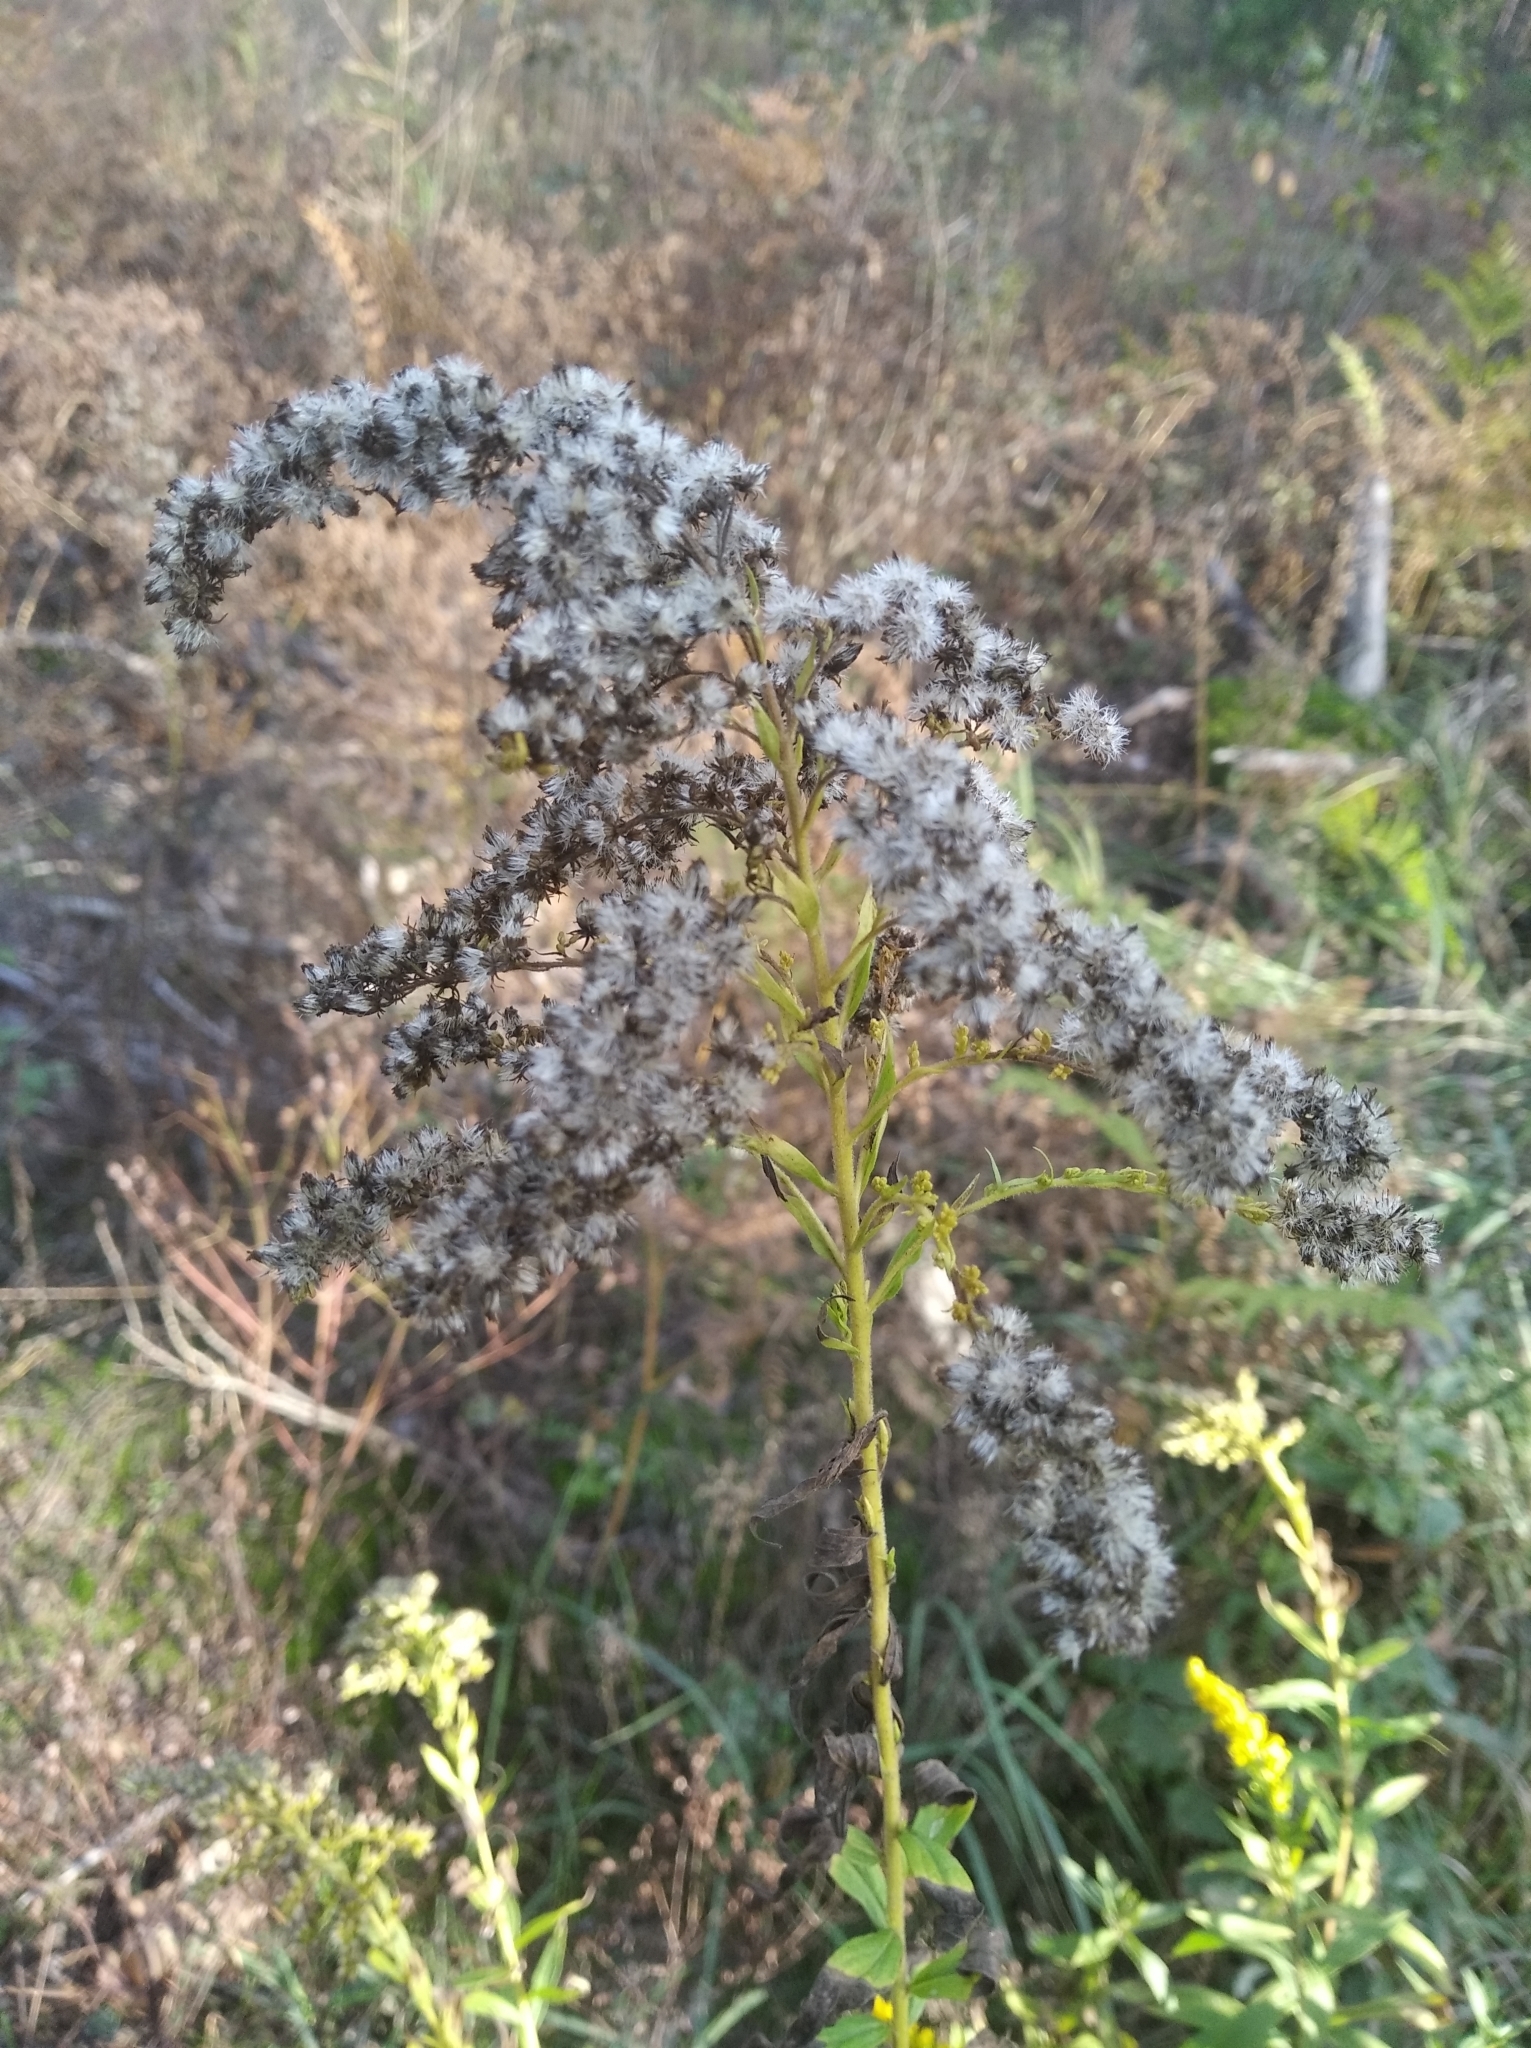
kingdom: Plantae
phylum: Tracheophyta
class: Magnoliopsida
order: Asterales
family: Asteraceae
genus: Solidago
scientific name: Solidago canadensis
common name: Canada goldenrod
